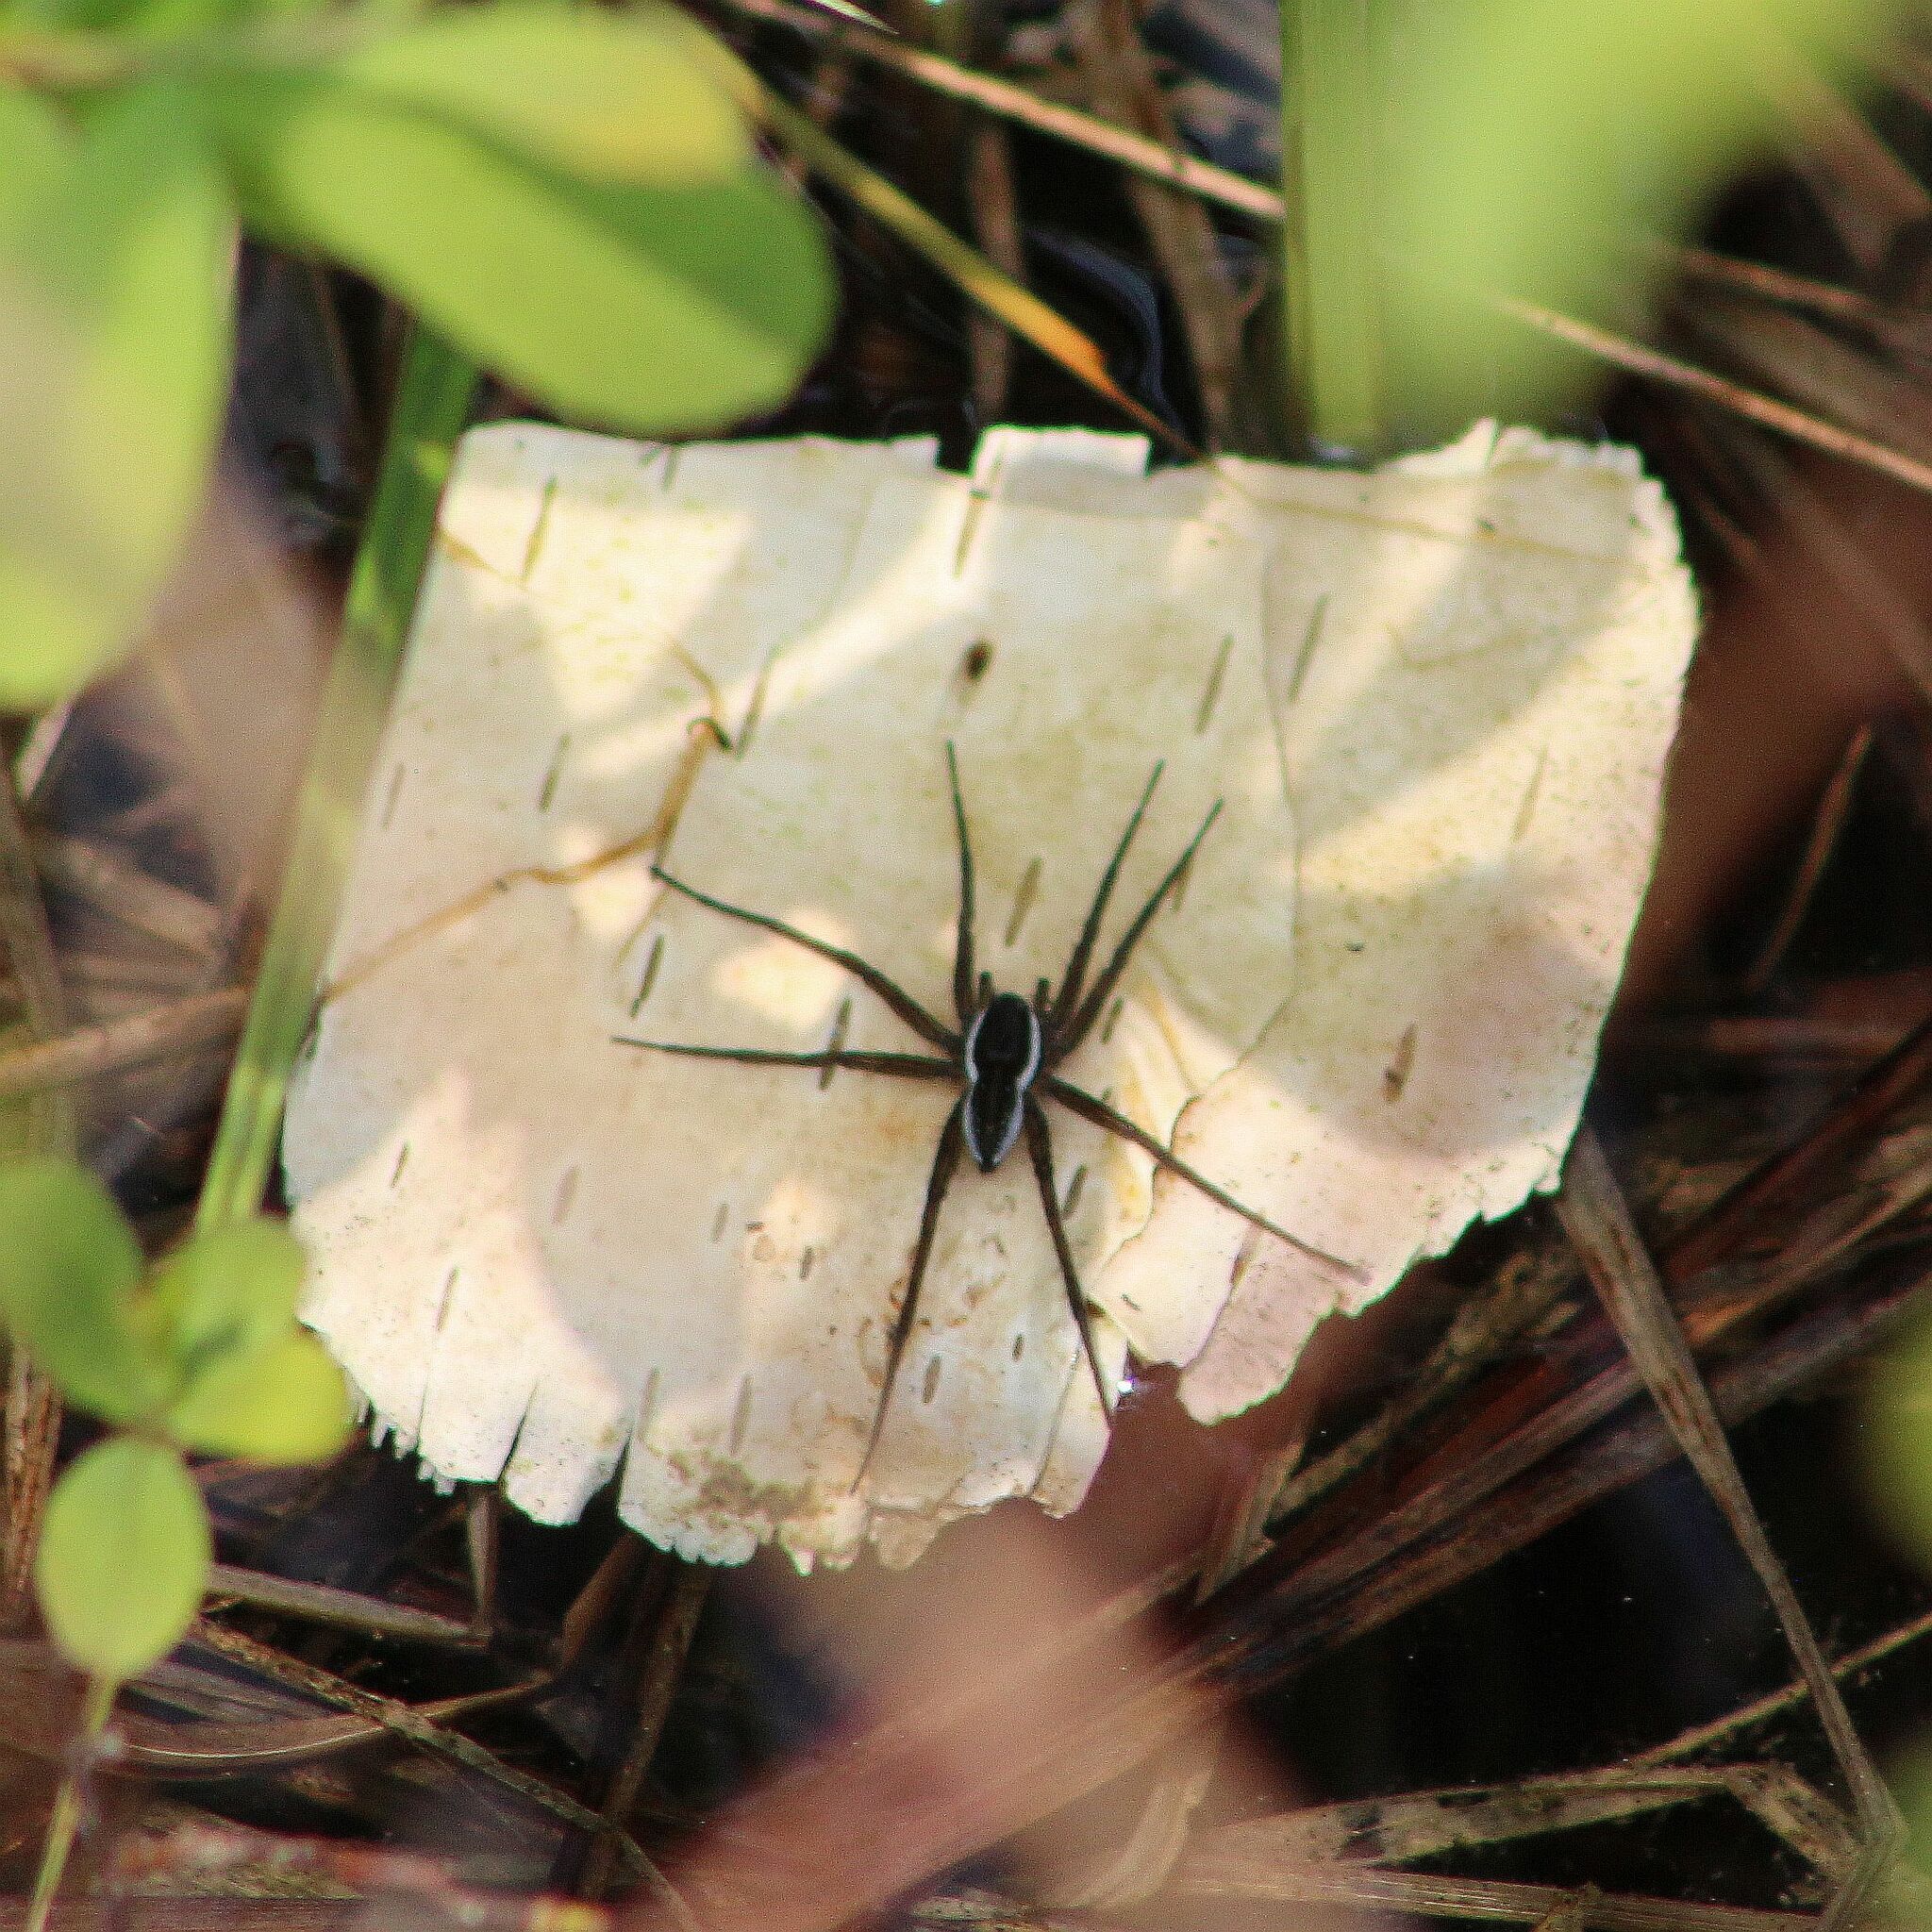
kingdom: Animalia
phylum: Arthropoda
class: Arachnida
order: Araneae
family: Pisauridae
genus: Dolomedes
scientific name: Dolomedes triton
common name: Six-spotted fishing spider
